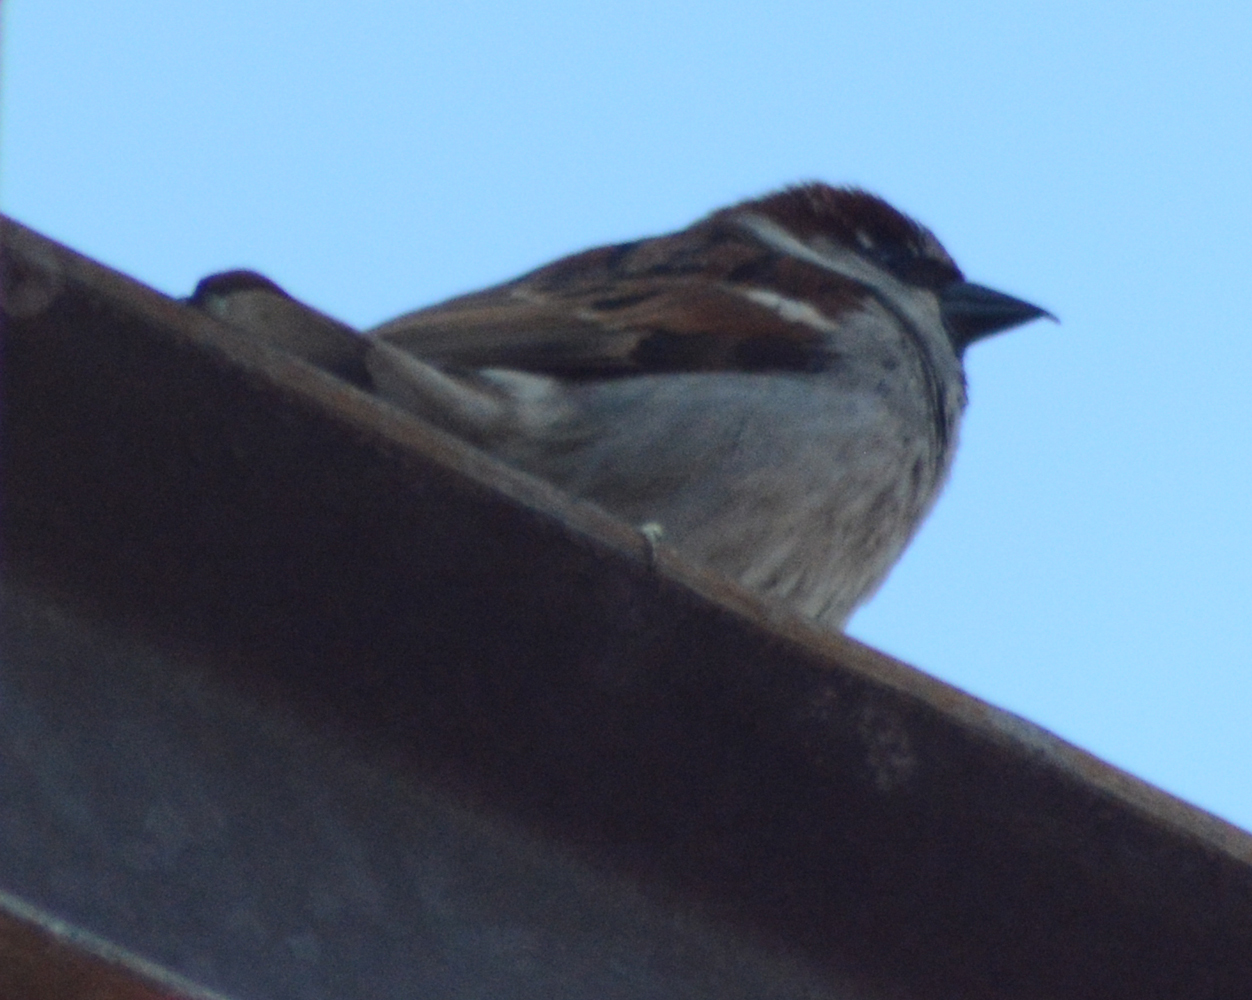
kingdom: Animalia
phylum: Chordata
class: Aves
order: Passeriformes
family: Passeridae
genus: Passer
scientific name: Passer domesticus
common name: House sparrow
